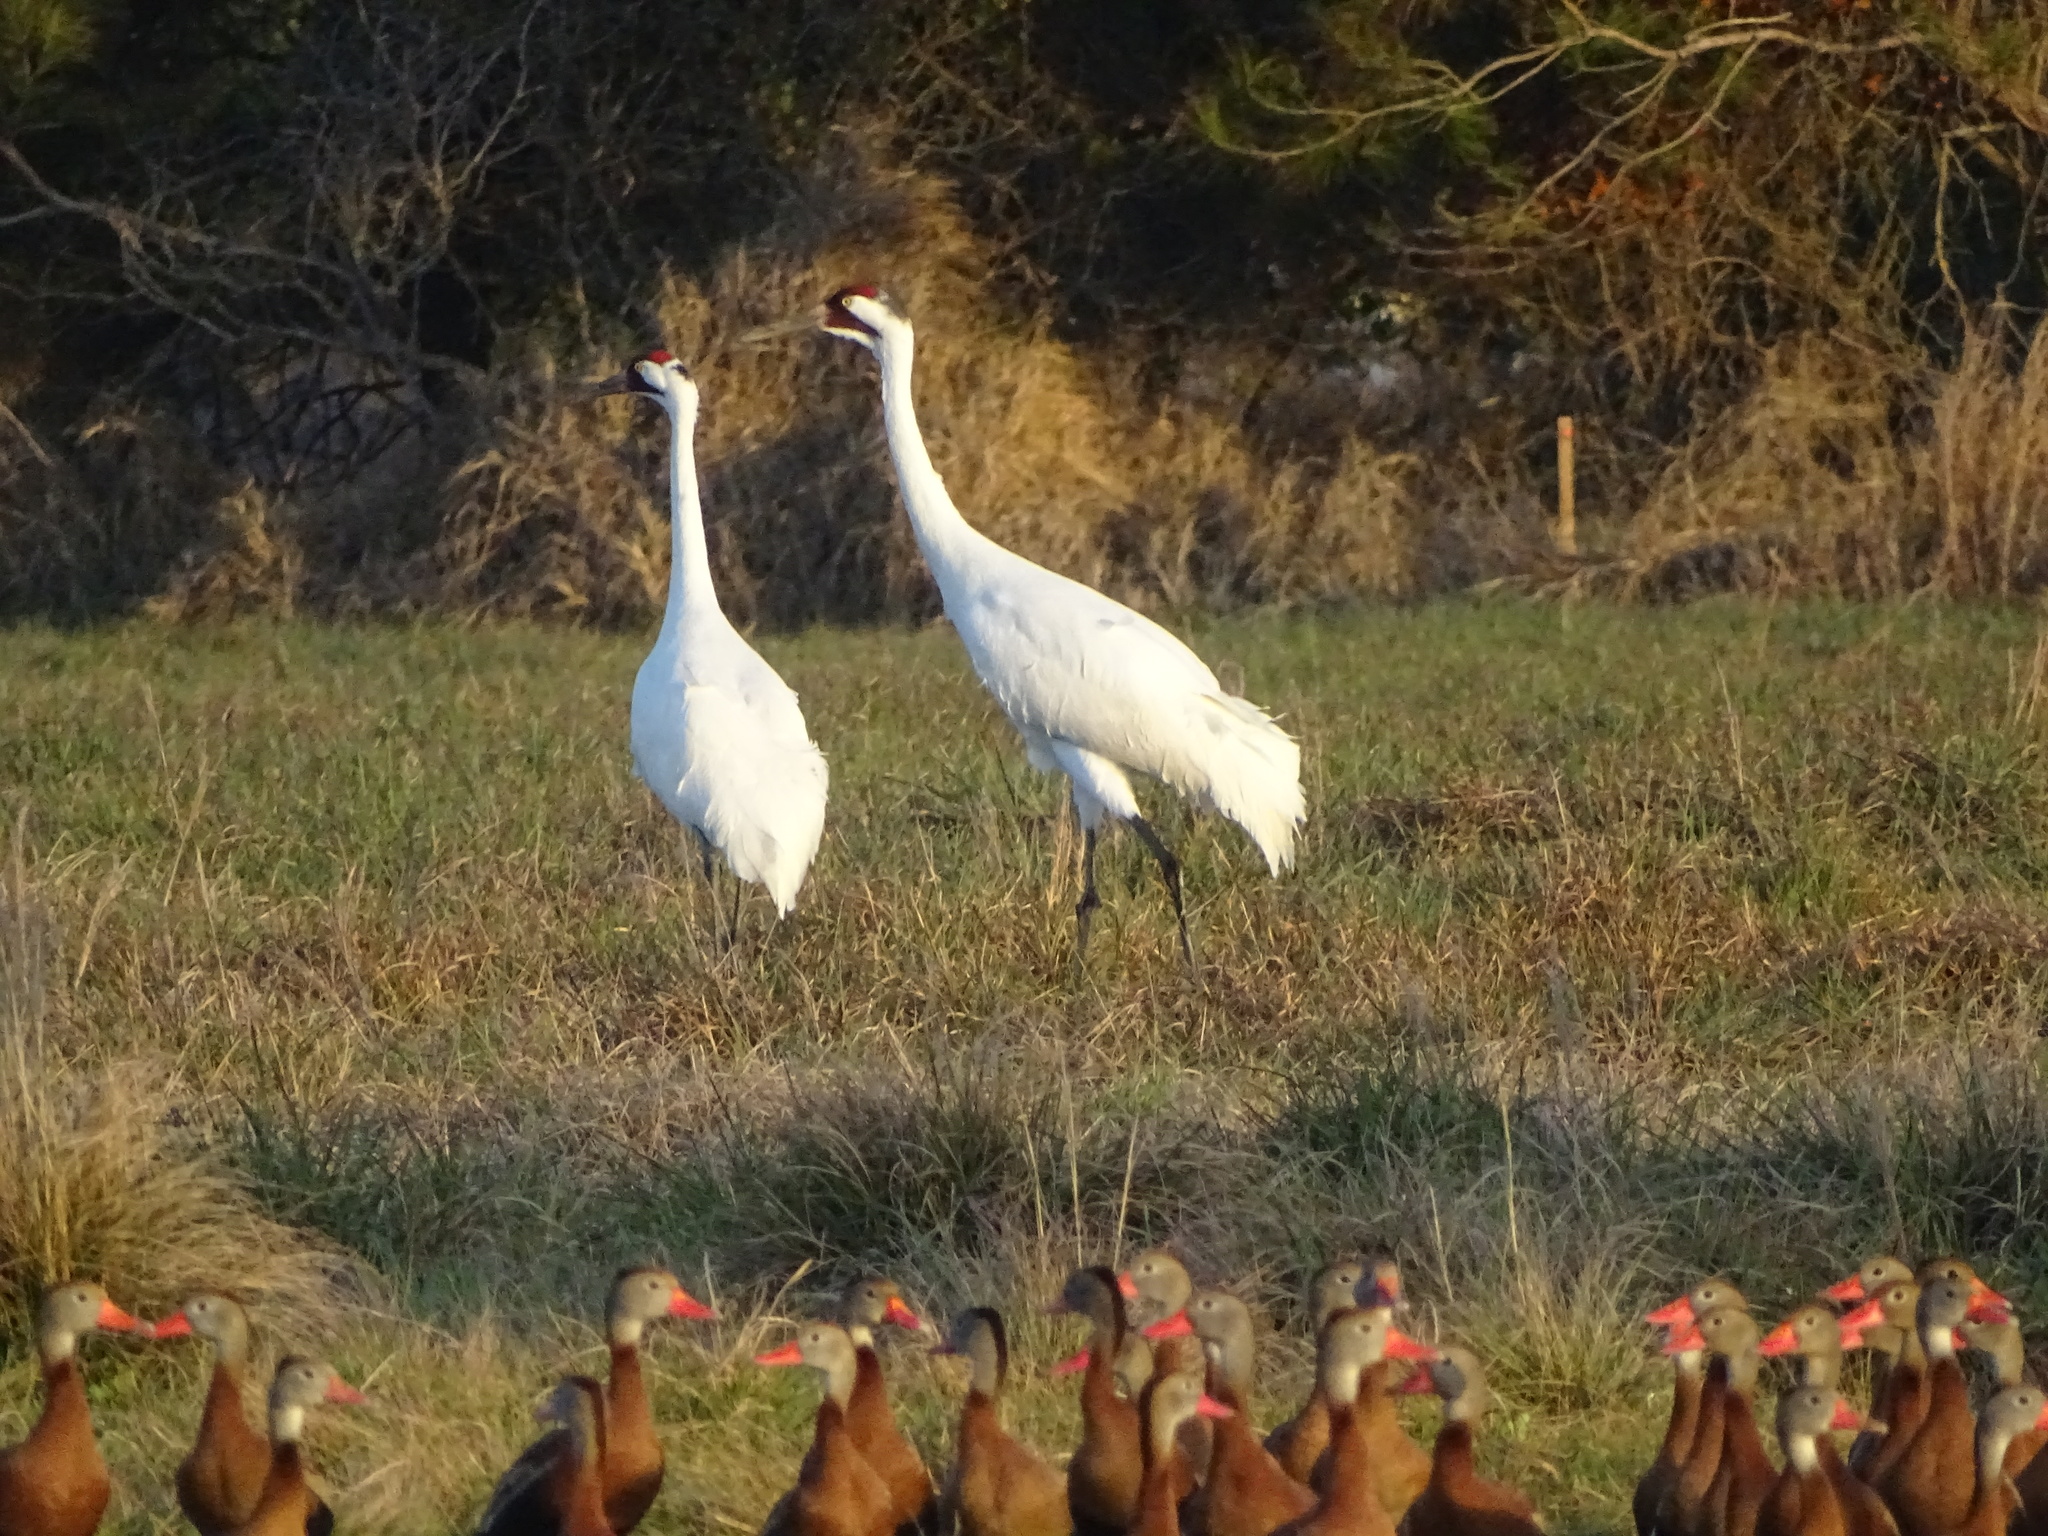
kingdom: Animalia
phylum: Chordata
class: Aves
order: Gruiformes
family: Gruidae
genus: Grus
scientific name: Grus americana
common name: Whooping crane
